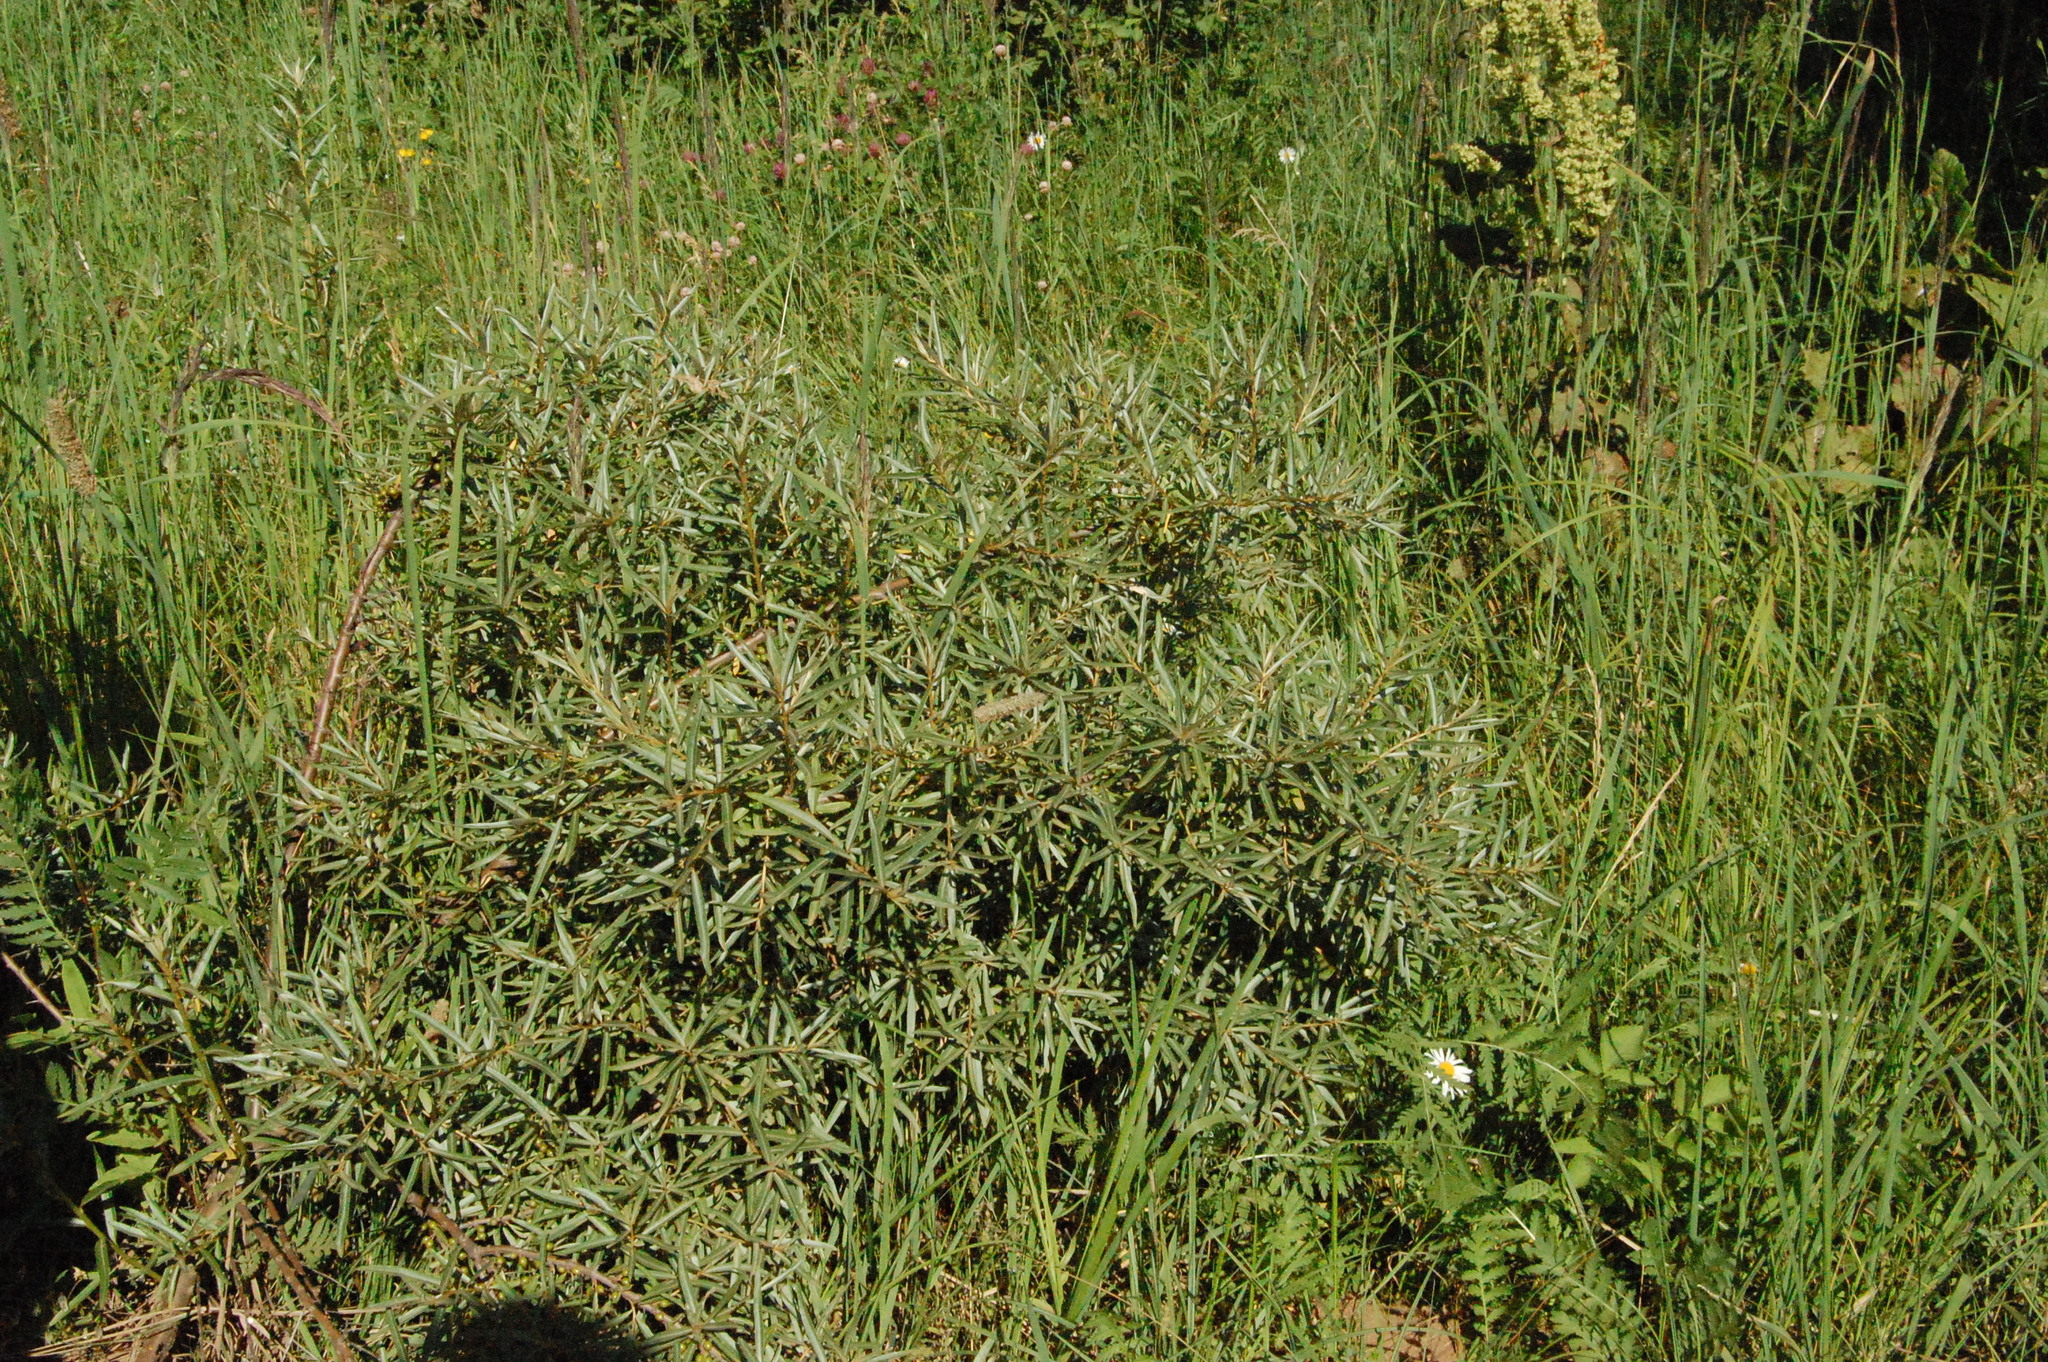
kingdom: Plantae
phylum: Tracheophyta
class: Magnoliopsida
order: Rosales
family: Elaeagnaceae
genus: Hippophae
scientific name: Hippophae rhamnoides
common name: Sea-buckthorn
